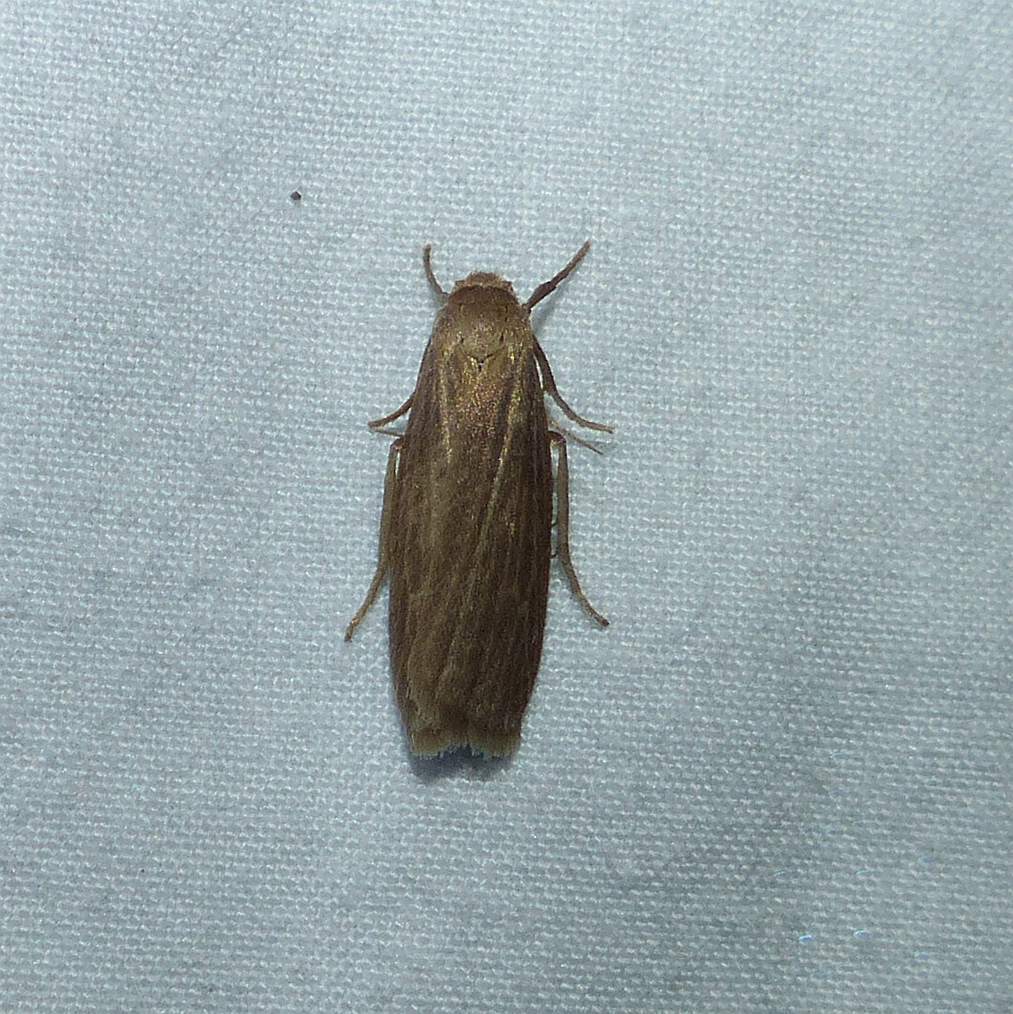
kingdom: Animalia
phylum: Arthropoda
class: Insecta
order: Lepidoptera
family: Erebidae
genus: Crambidia
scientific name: Crambidia pallida
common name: Pale lichen moth
